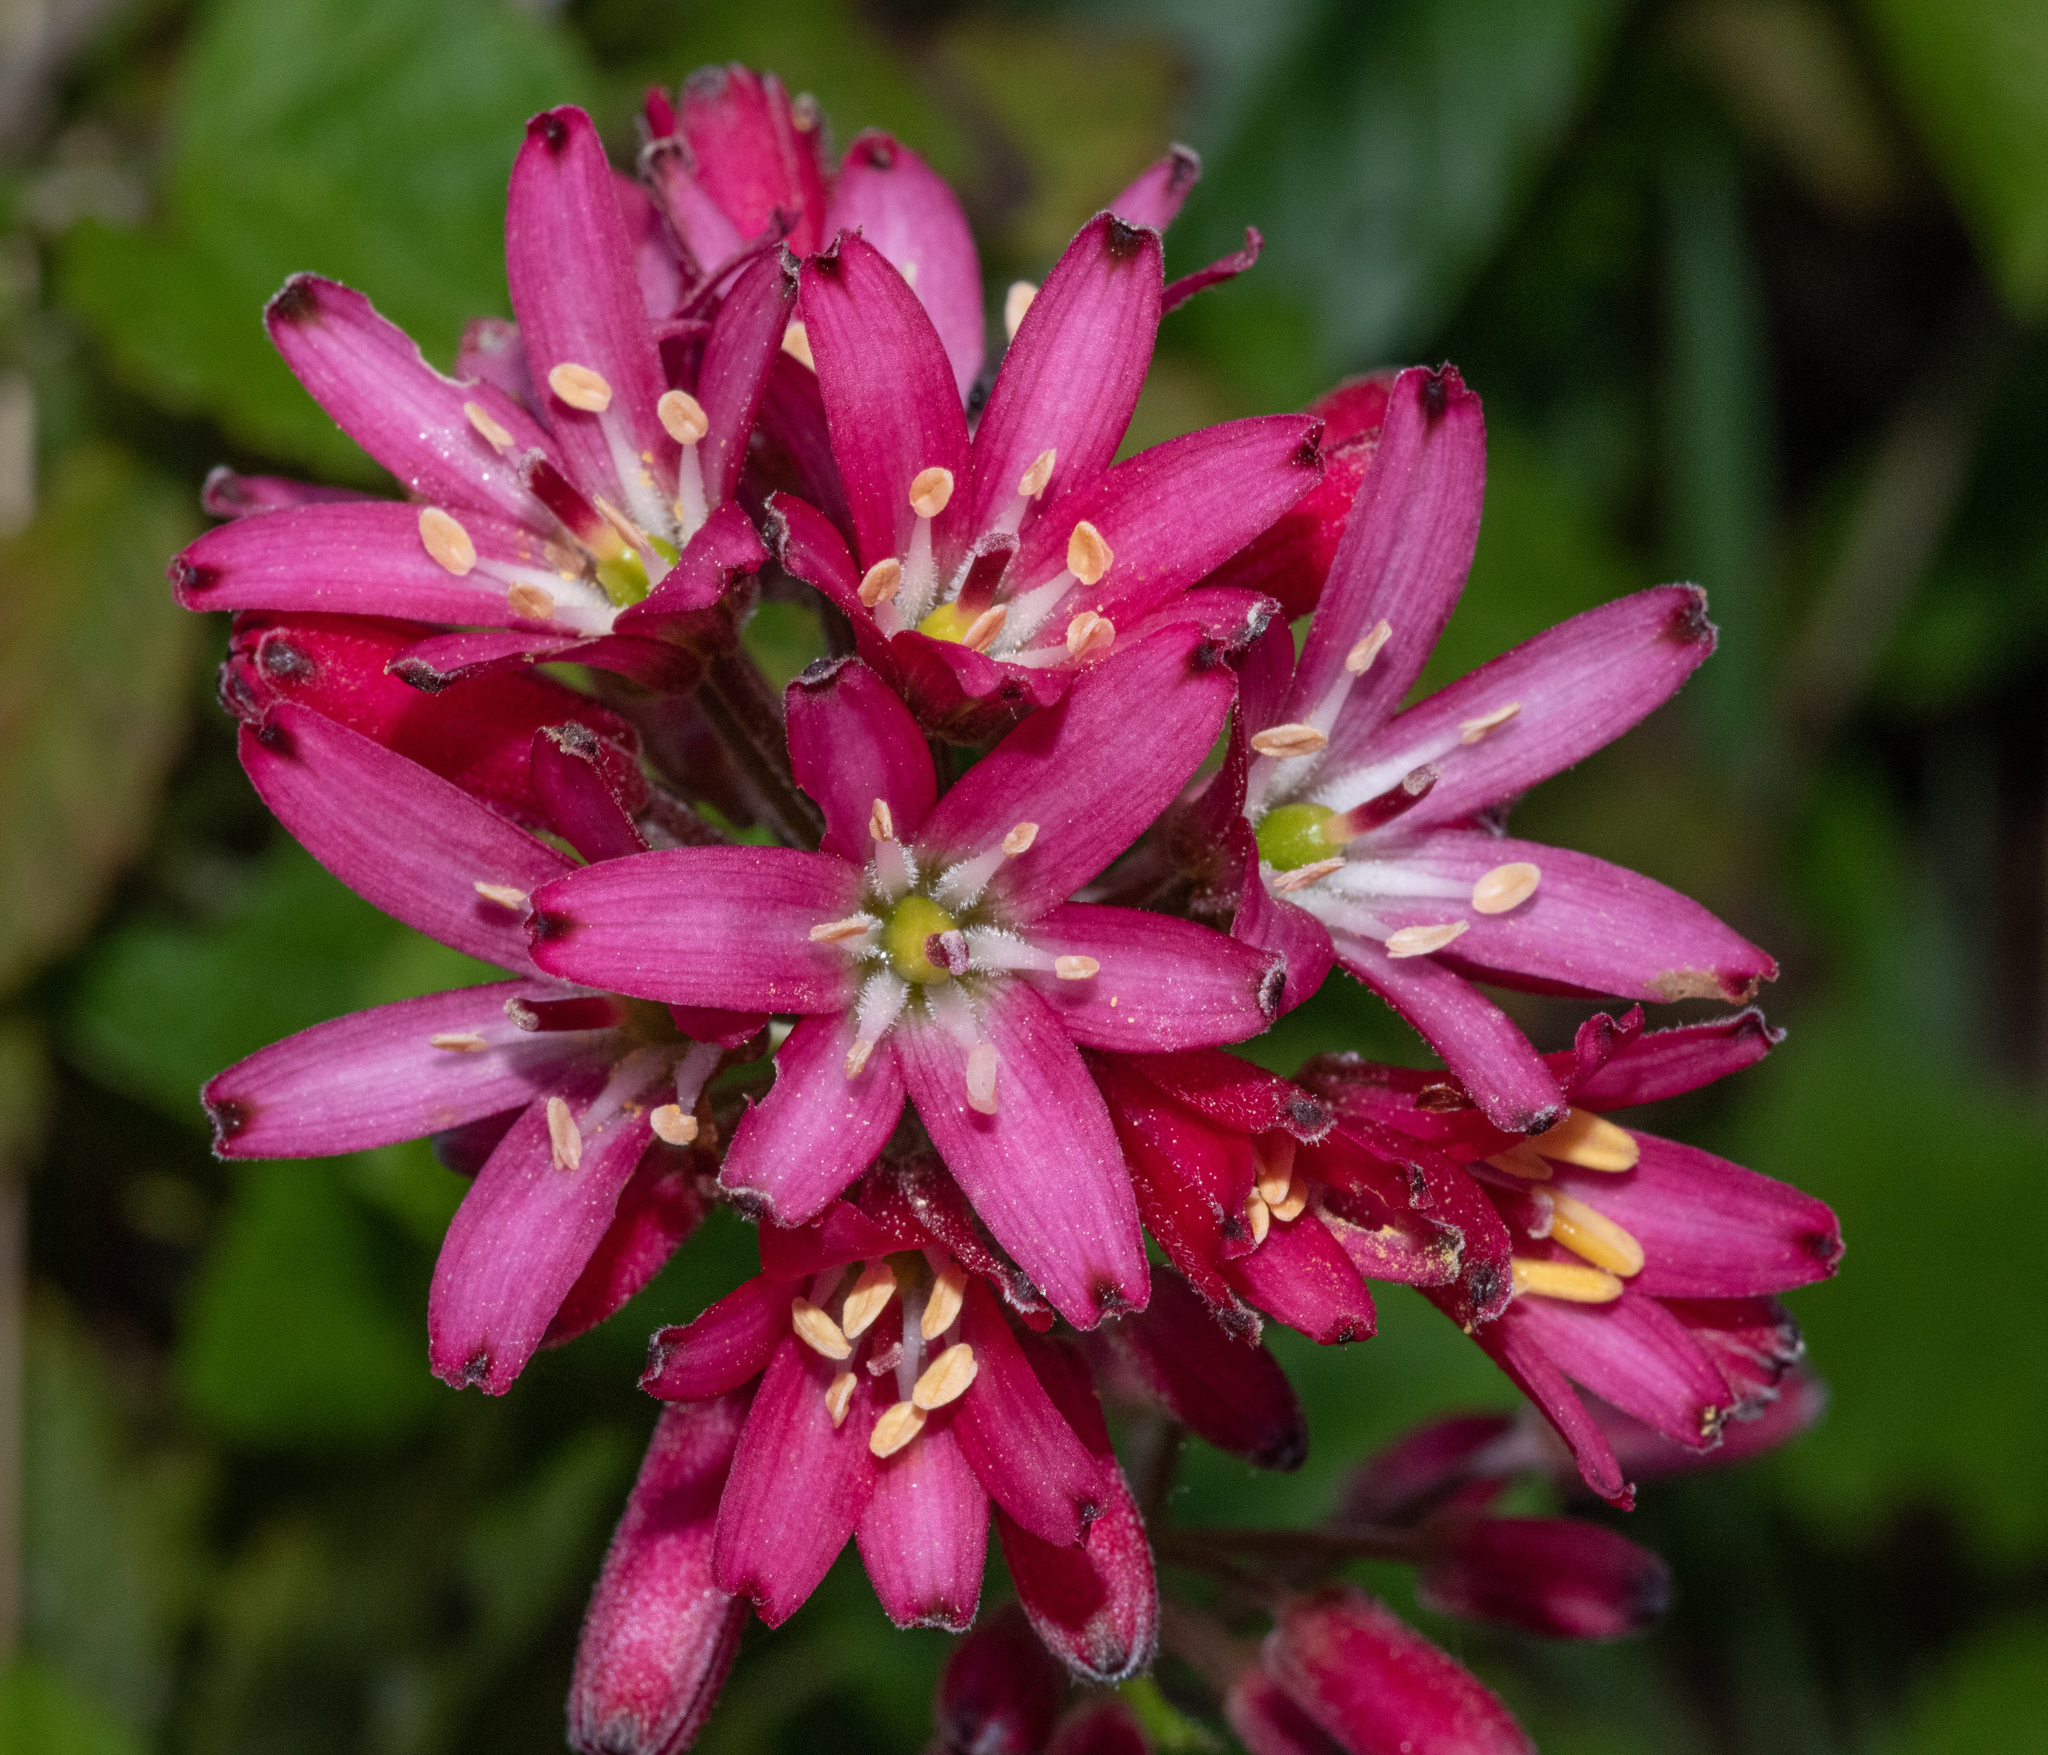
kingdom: Plantae
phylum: Tracheophyta
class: Liliopsida
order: Liliales
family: Liliaceae
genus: Clintonia
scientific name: Clintonia andrewsiana
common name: Red clintonia
